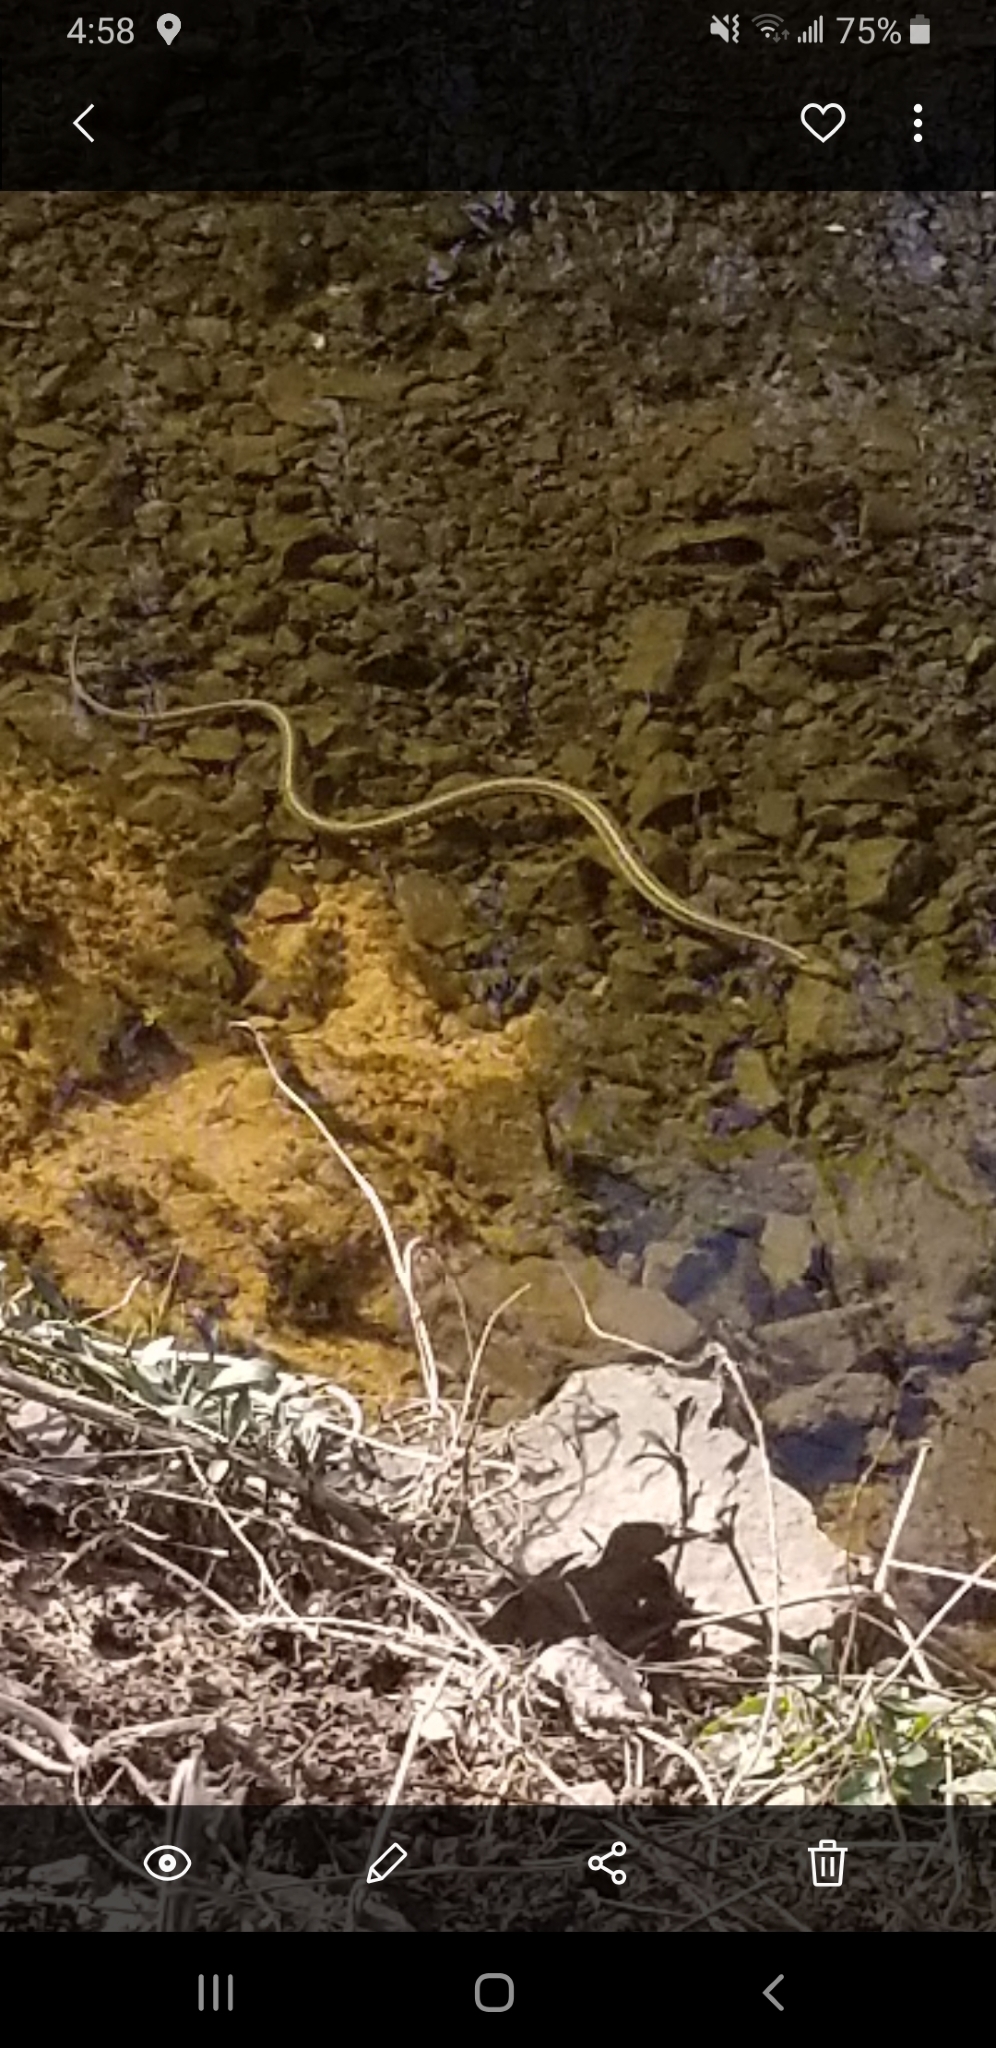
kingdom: Animalia
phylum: Chordata
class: Squamata
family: Colubridae
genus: Thamnophis
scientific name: Thamnophis sirtalis
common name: Common garter snake
